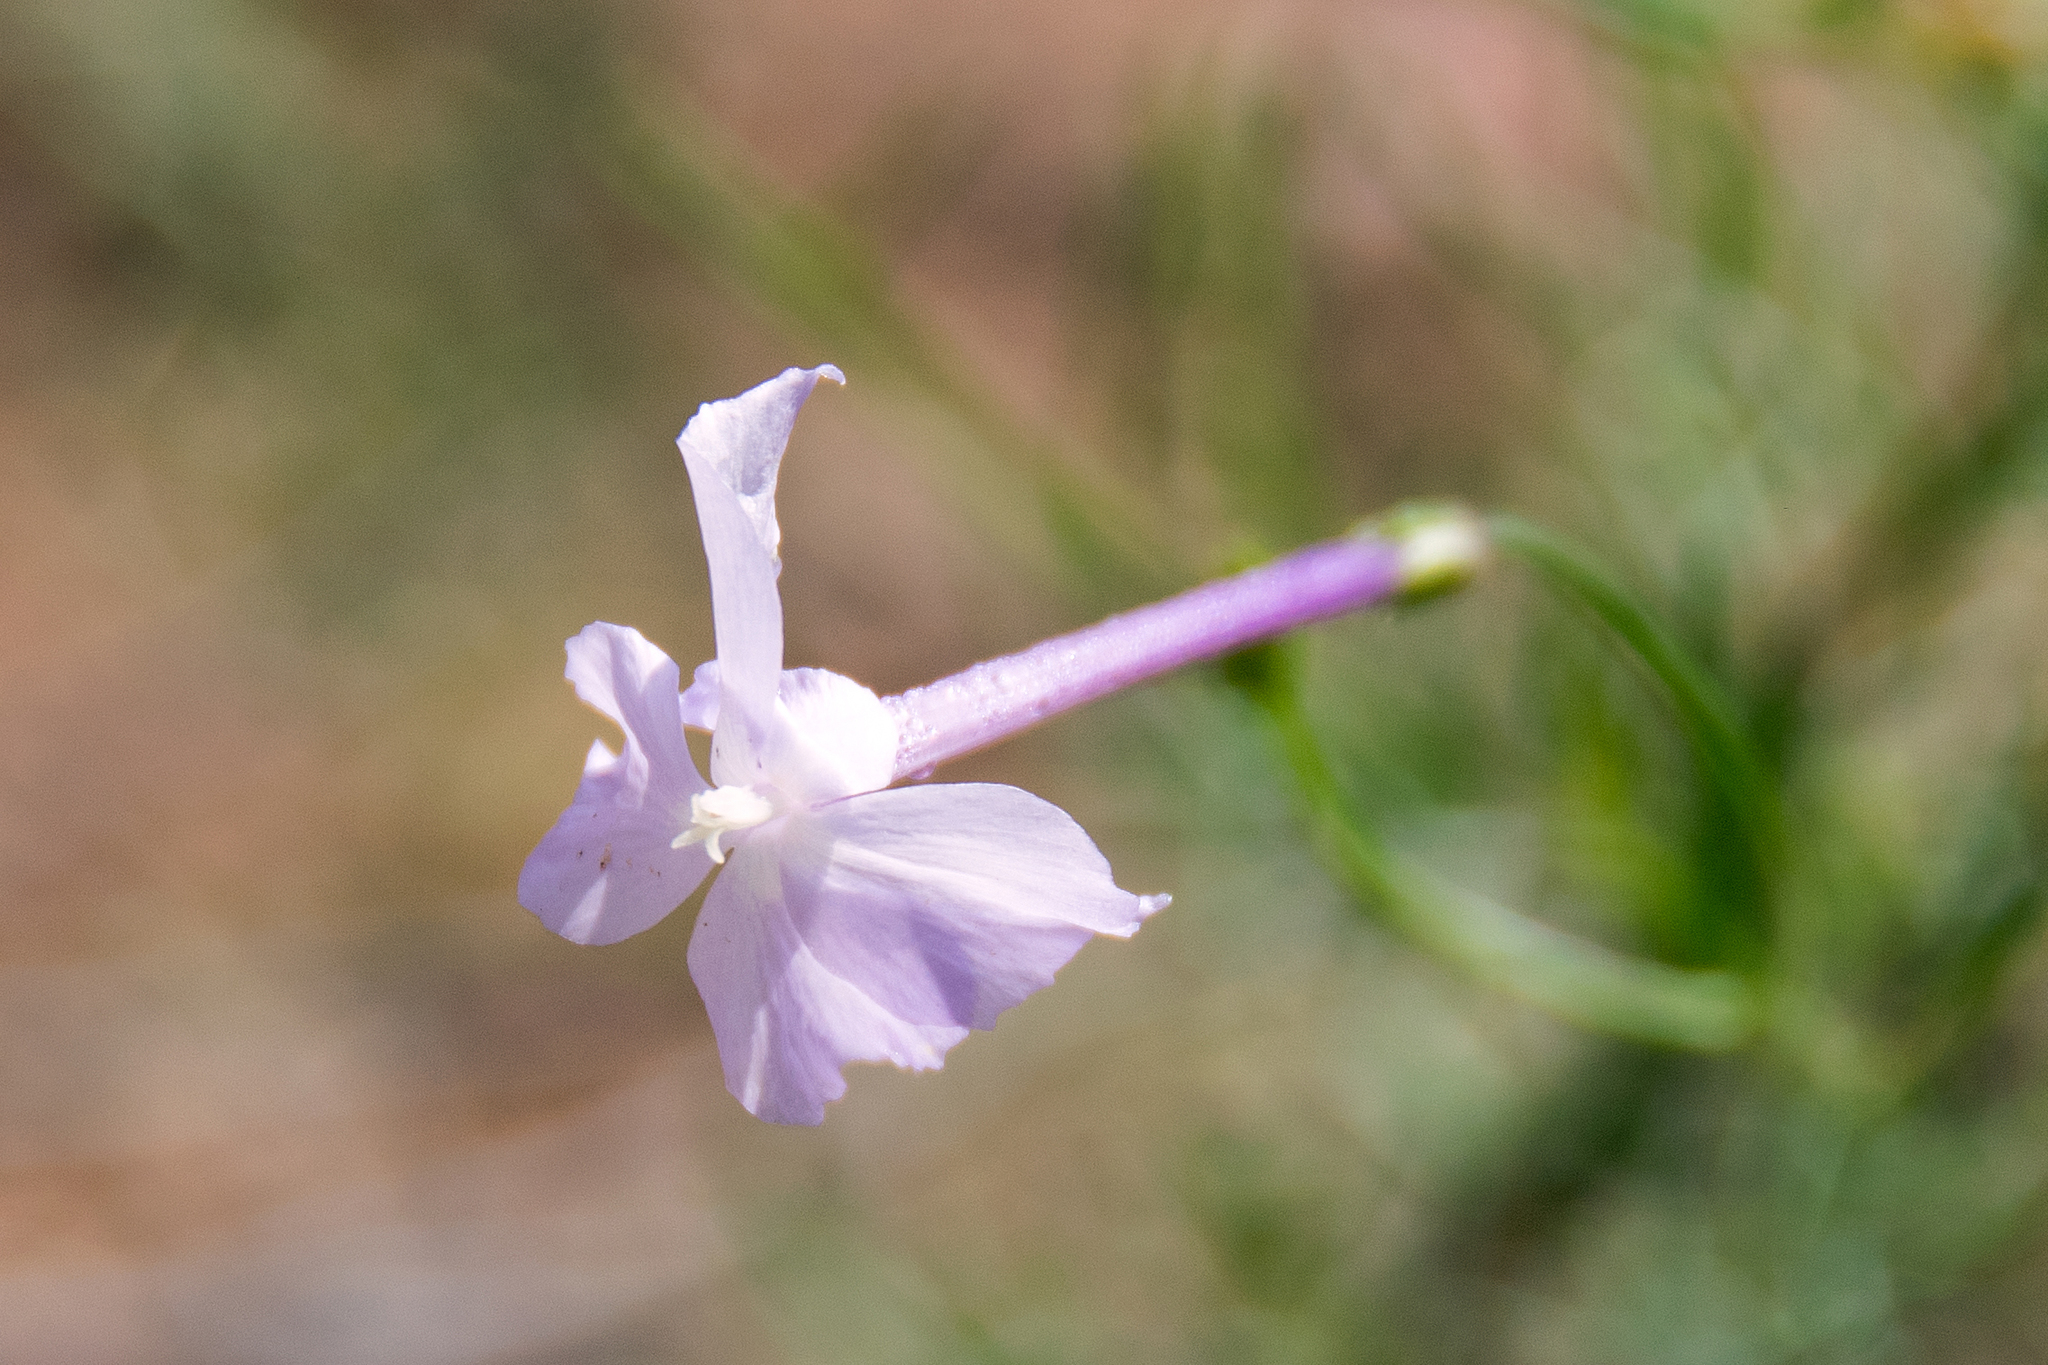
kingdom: Plantae
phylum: Tracheophyta
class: Magnoliopsida
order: Ericales
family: Polemoniaceae
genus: Ipomopsis
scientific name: Ipomopsis longiflora
